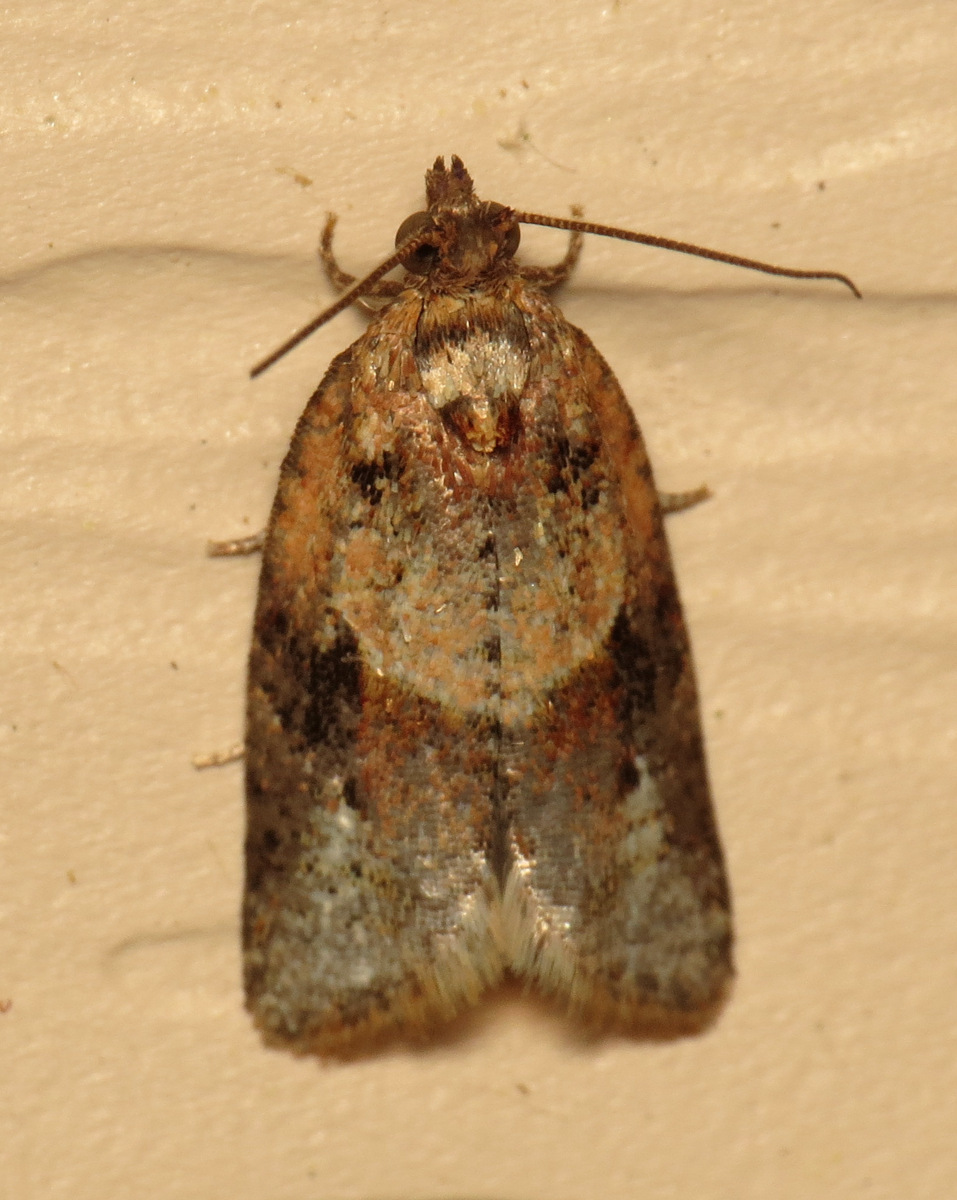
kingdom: Animalia
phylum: Arthropoda
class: Insecta
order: Lepidoptera
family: Tortricidae
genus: Argyrotaenia
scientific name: Argyrotaenia velutinana
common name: Red-banded leafroller moth
